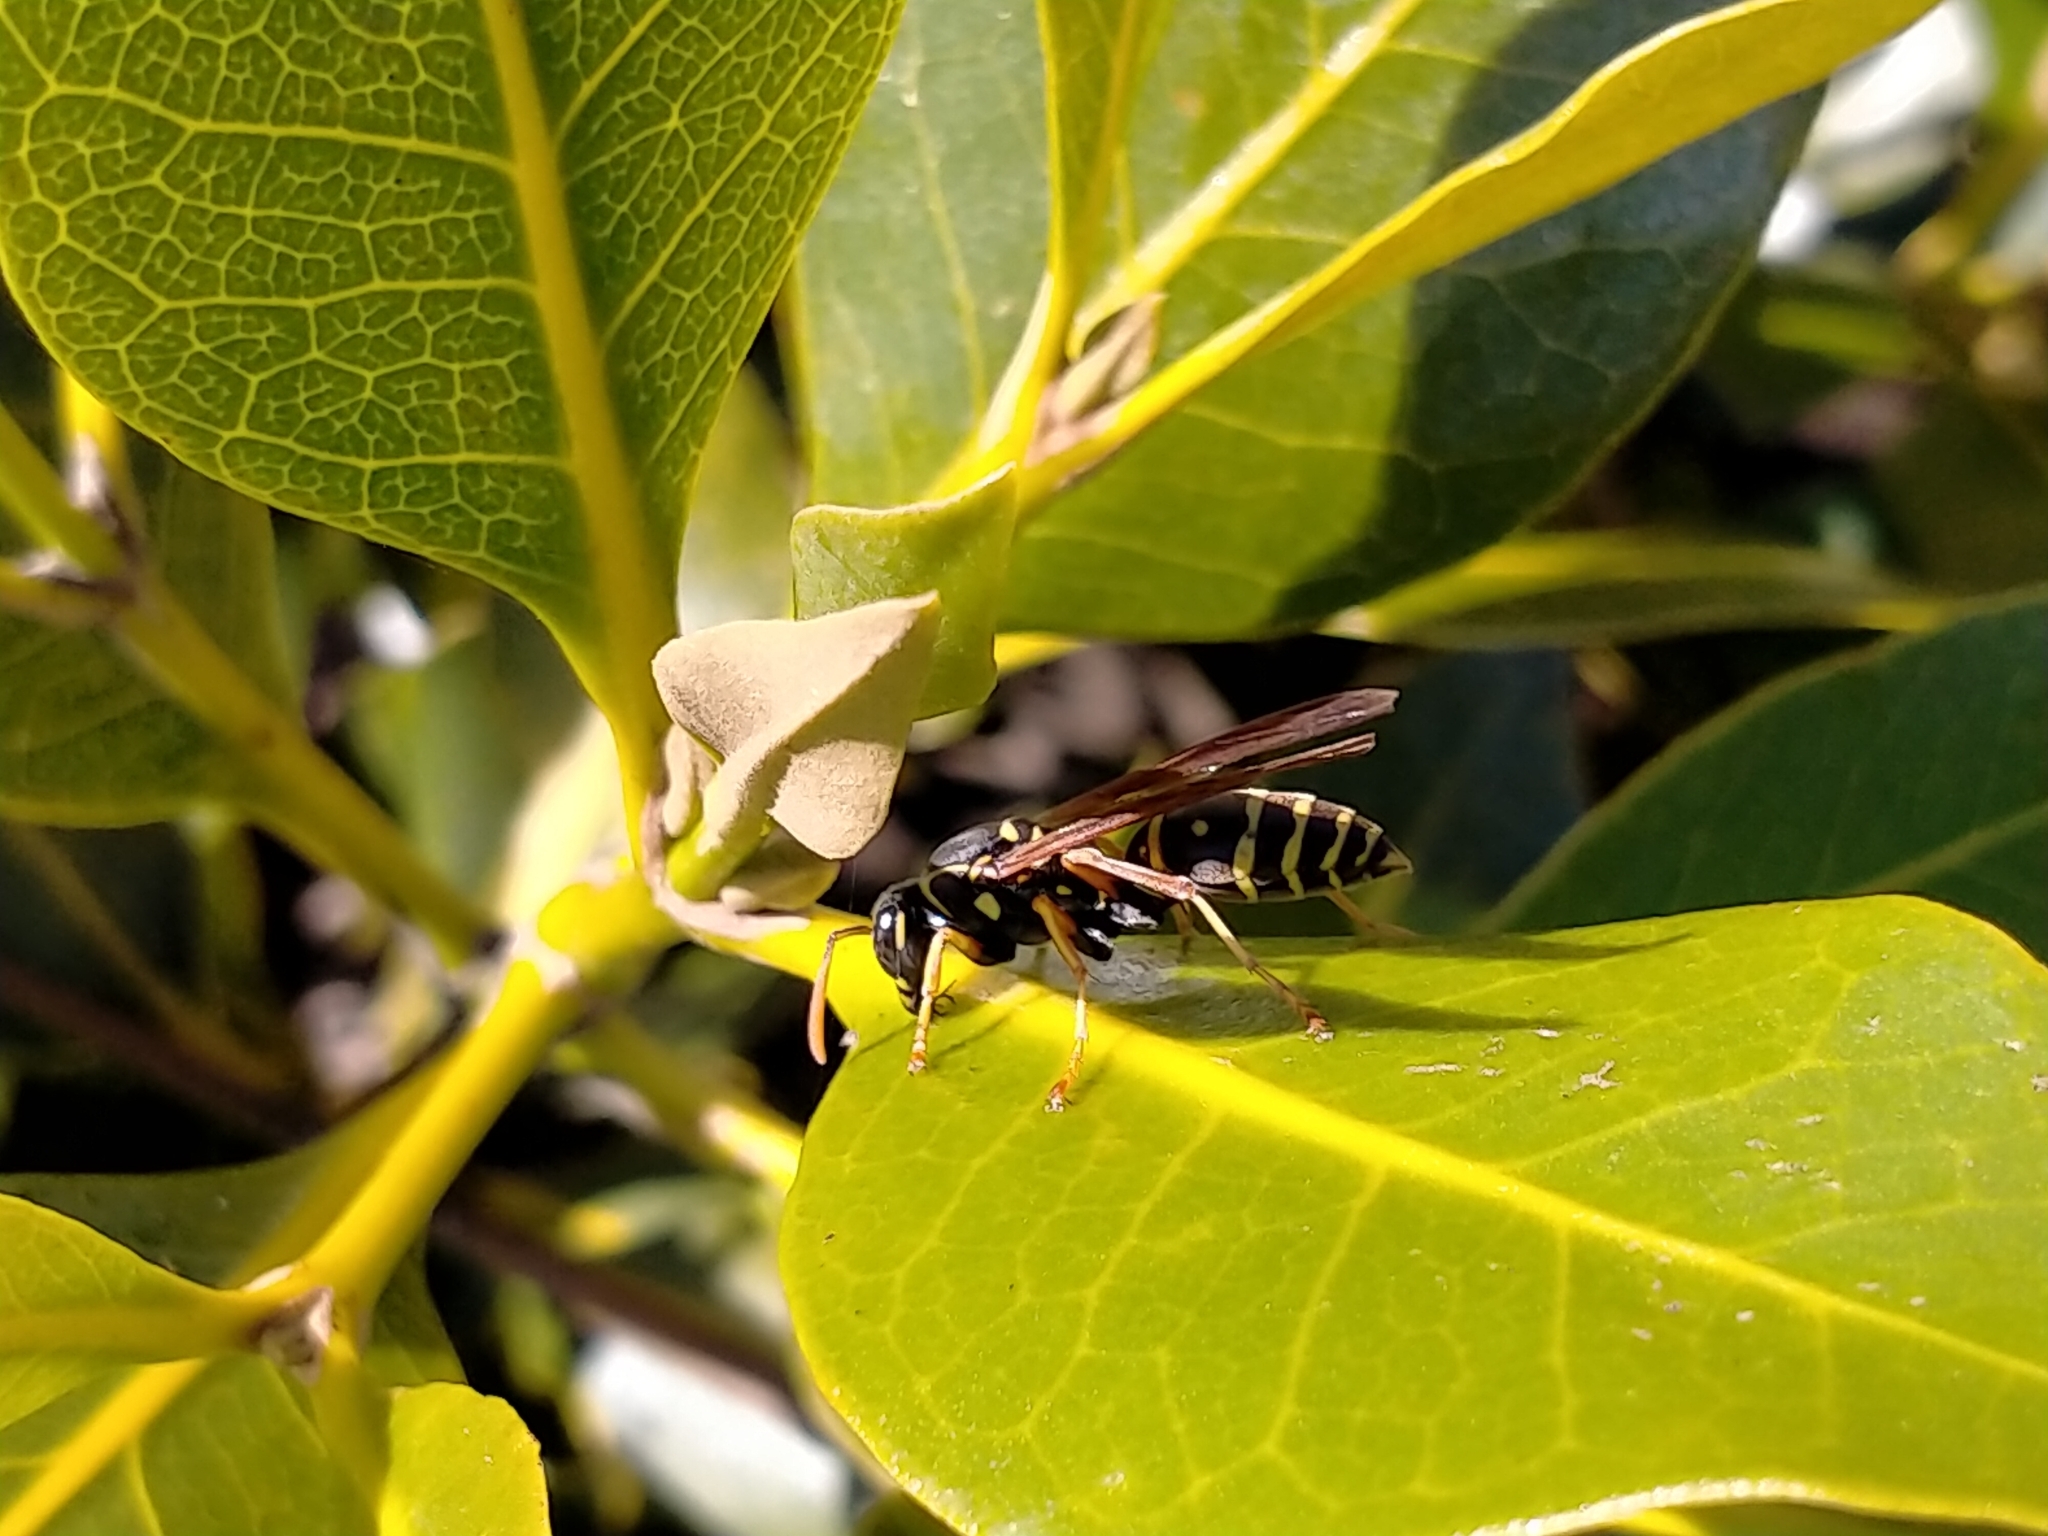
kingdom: Animalia
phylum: Arthropoda
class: Insecta
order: Hymenoptera
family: Eumenidae
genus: Polistes
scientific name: Polistes chinensis
